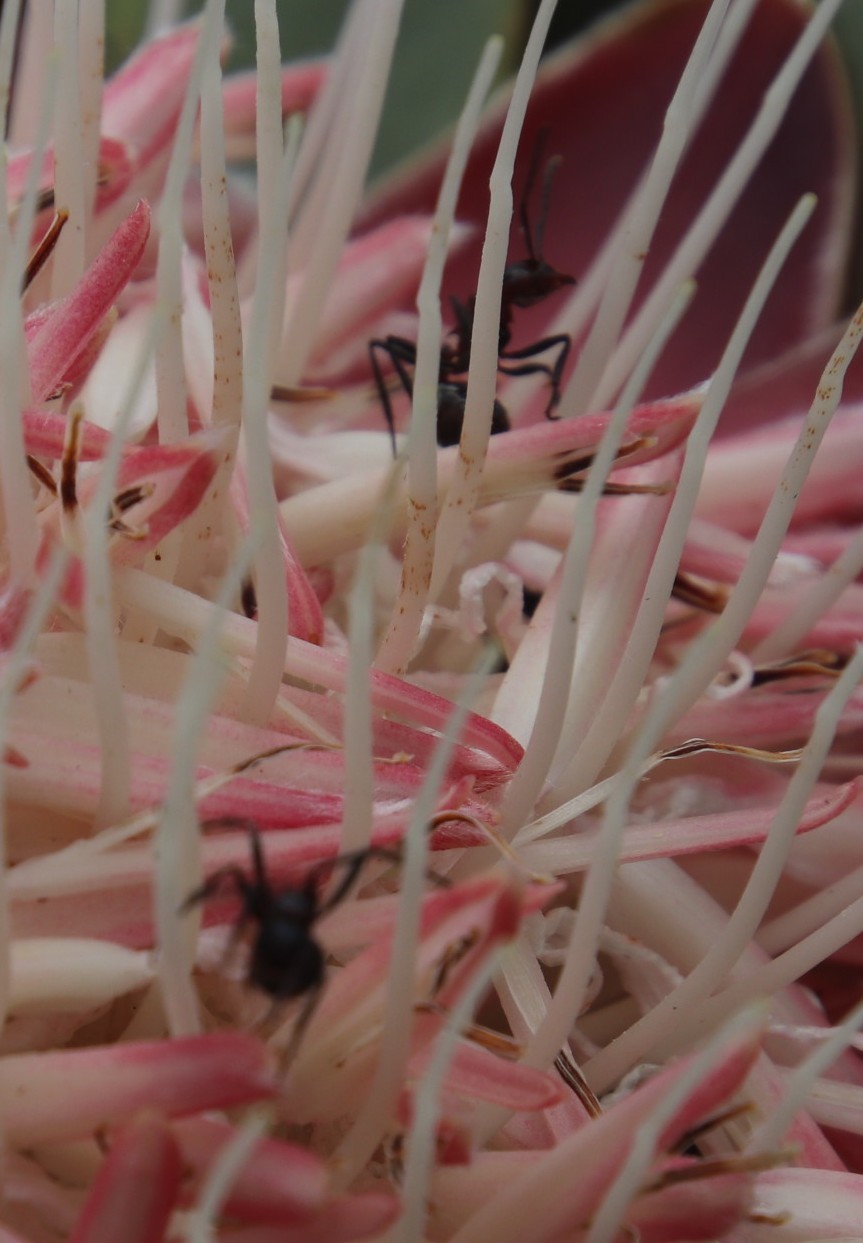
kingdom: Animalia
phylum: Arthropoda
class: Insecta
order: Hymenoptera
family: Formicidae
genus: Myrmicaria
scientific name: Myrmicaria natalensis
